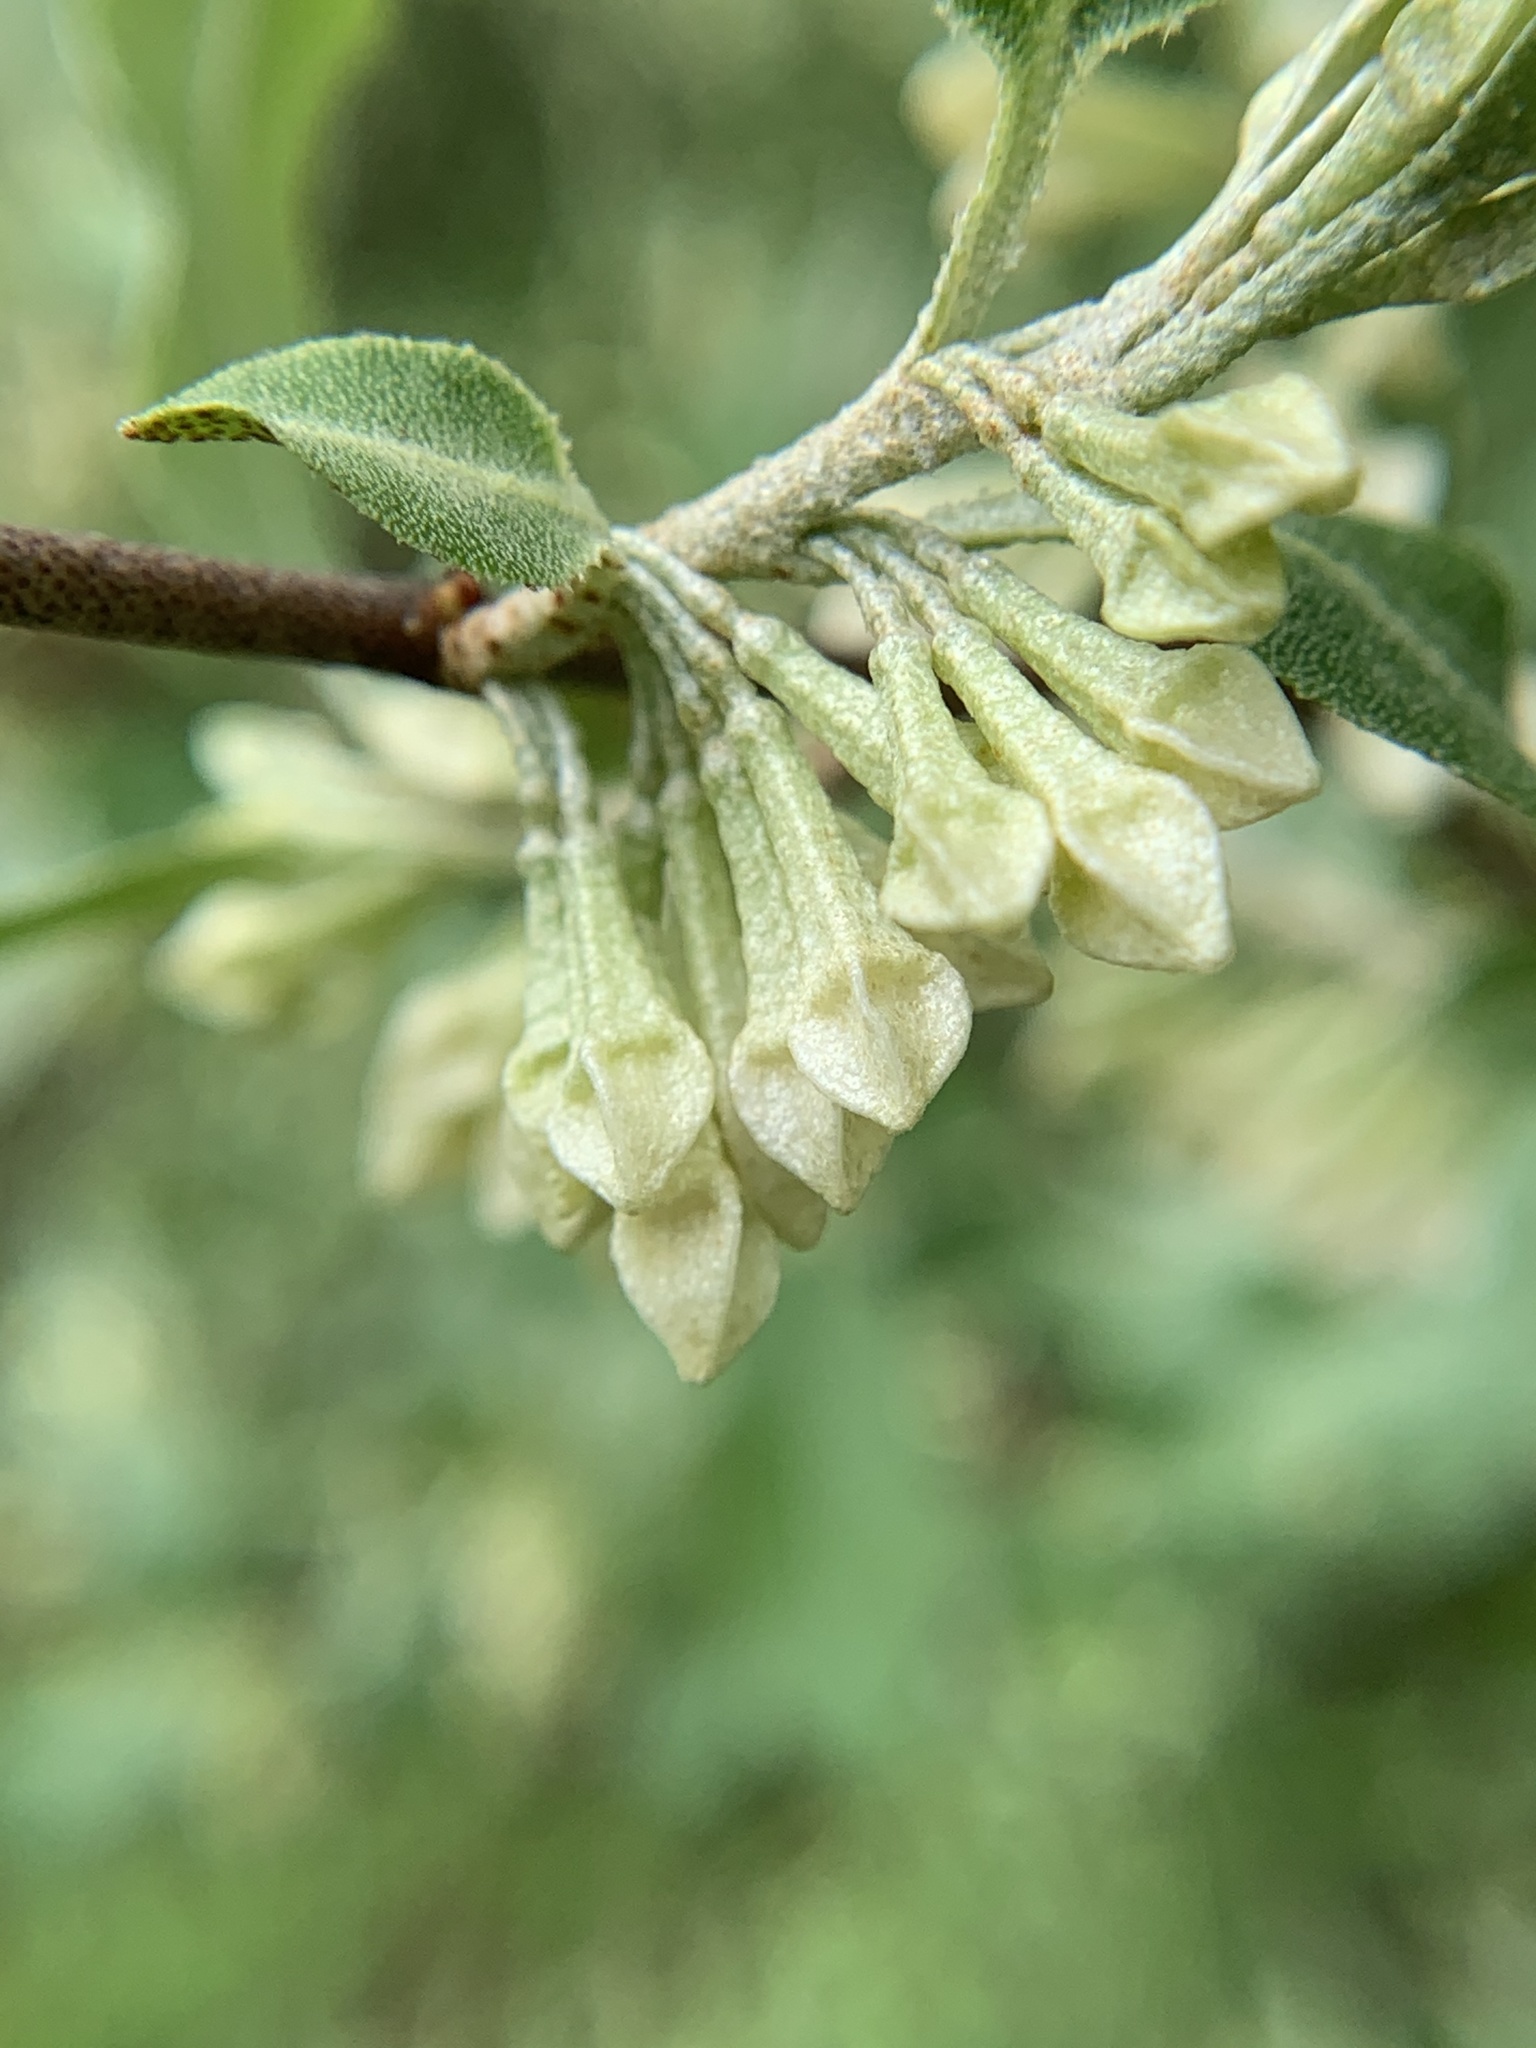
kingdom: Plantae
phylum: Tracheophyta
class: Magnoliopsida
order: Rosales
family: Elaeagnaceae
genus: Elaeagnus
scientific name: Elaeagnus umbellata
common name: Autumn olive
